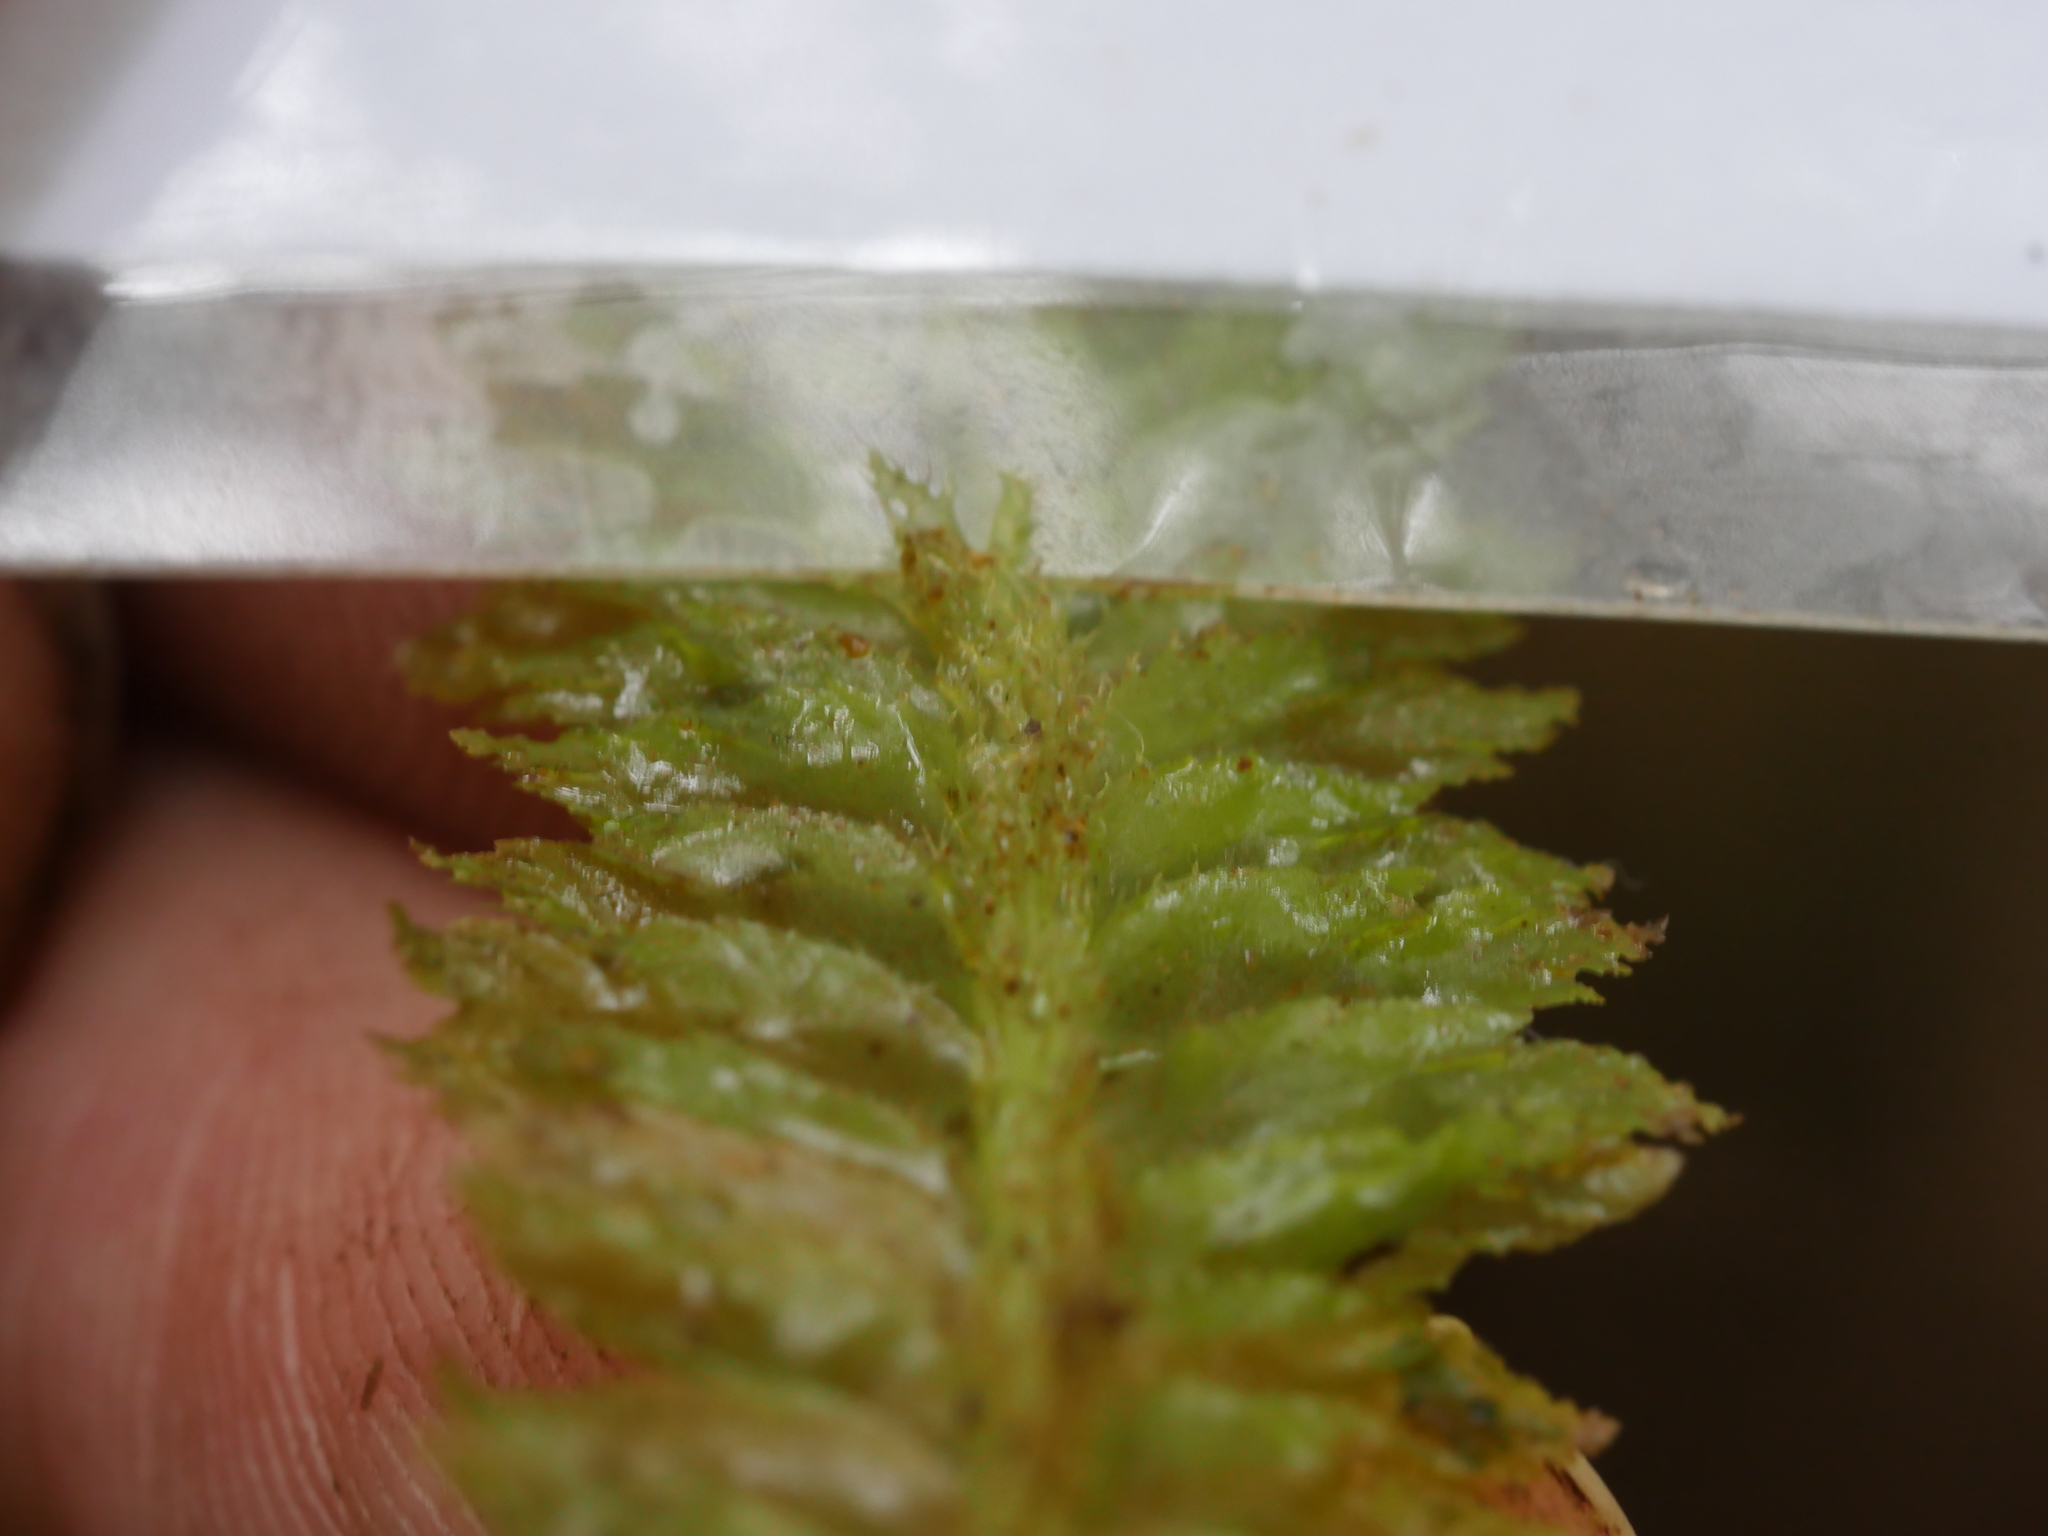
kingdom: Plantae
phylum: Marchantiophyta
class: Jungermanniopsida
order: Jungermanniales
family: Schistochilaceae
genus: Schistochila
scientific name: Schistochila balfouriana
